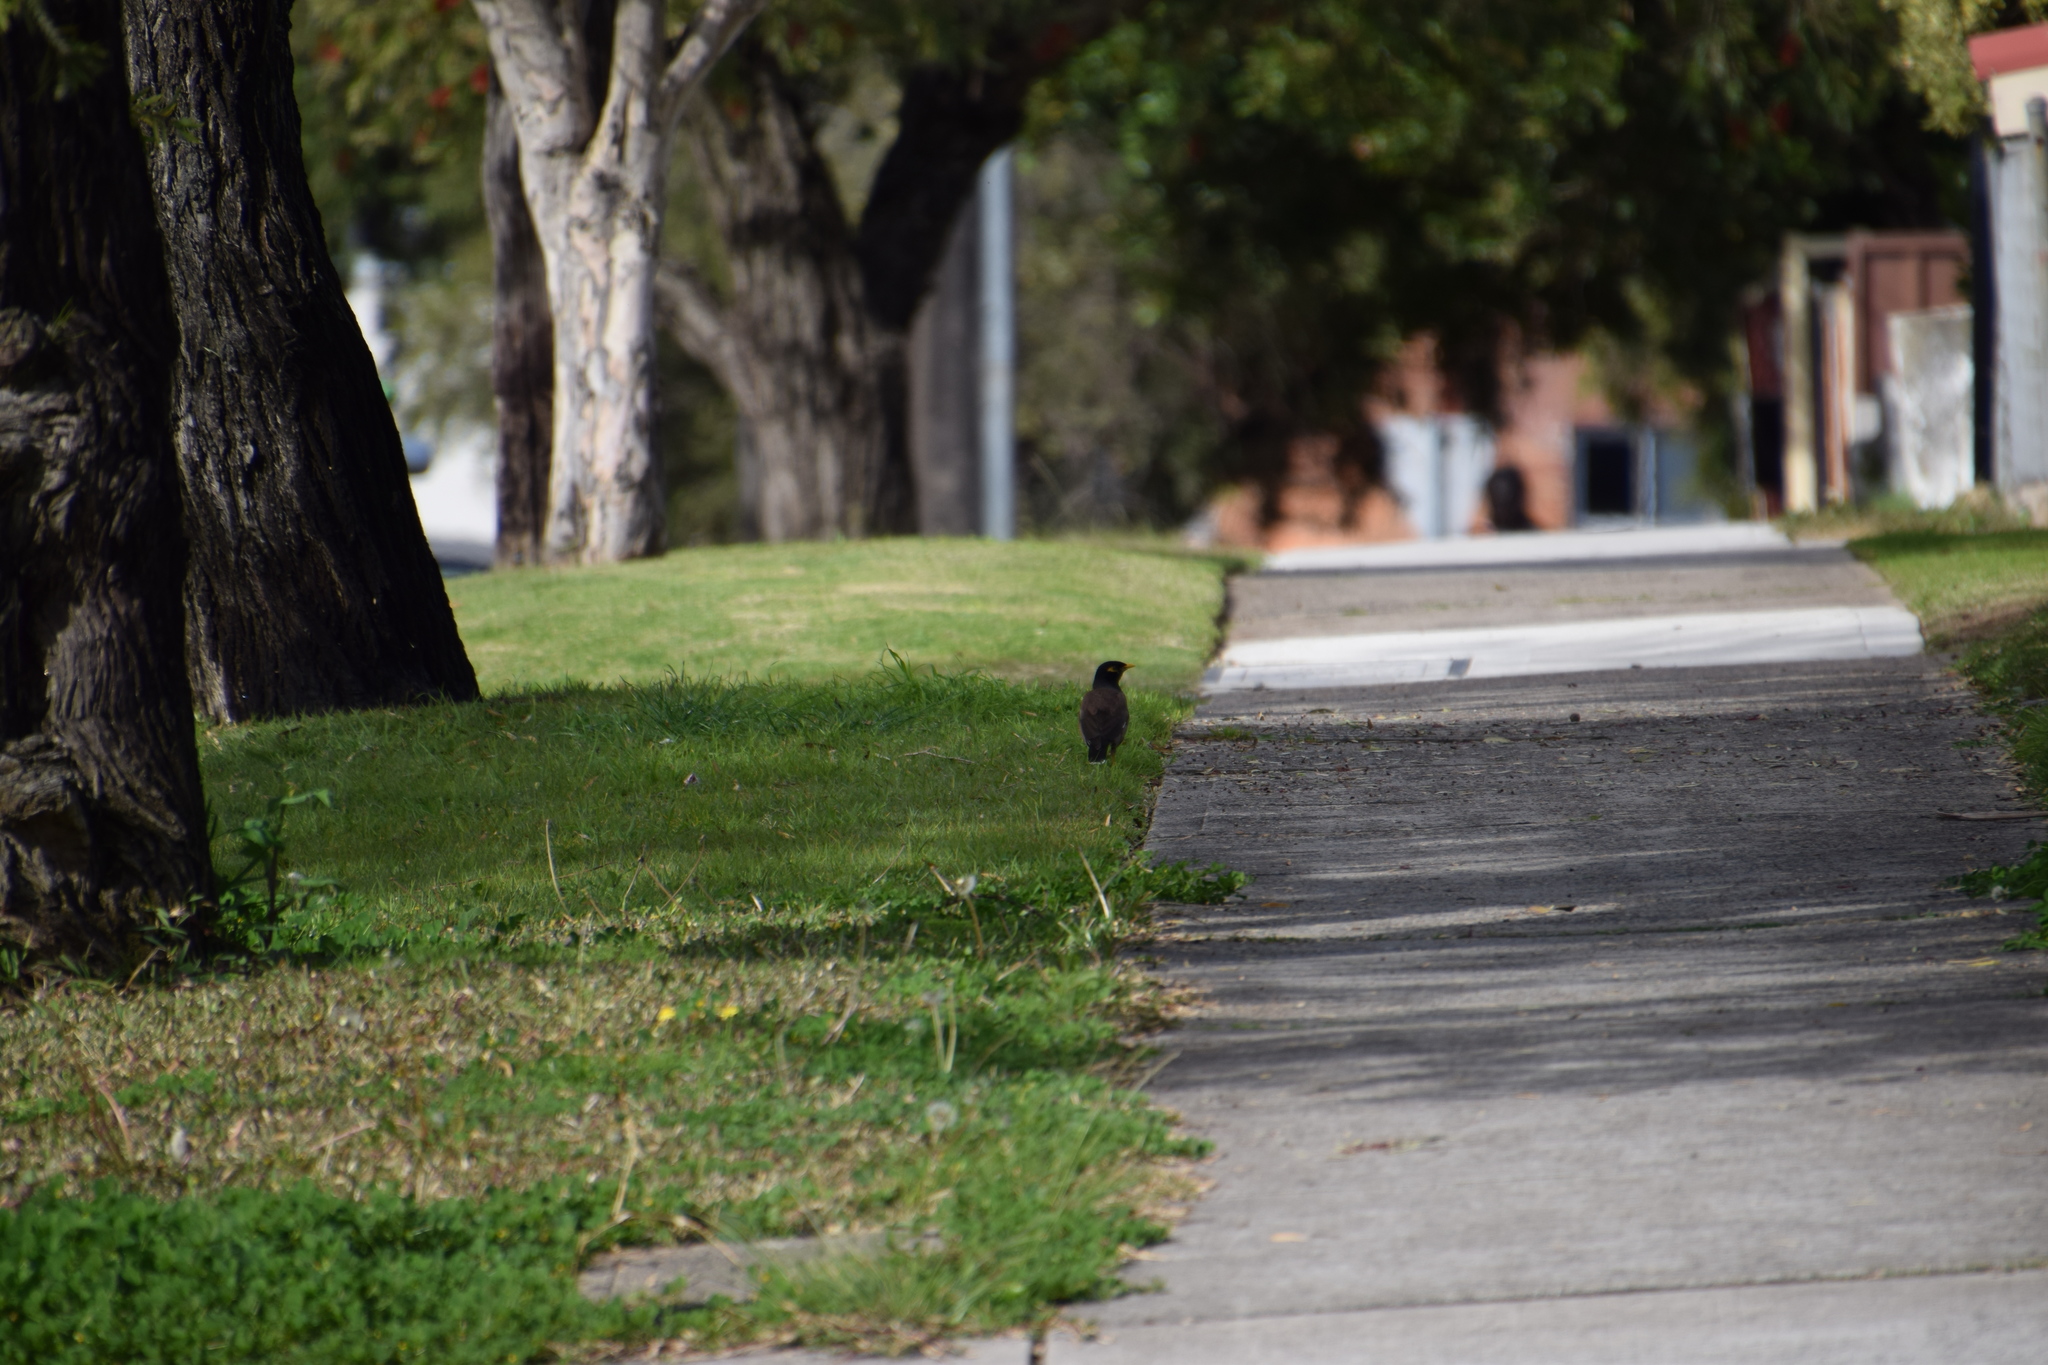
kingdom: Animalia
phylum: Chordata
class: Aves
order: Passeriformes
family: Sturnidae
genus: Acridotheres
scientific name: Acridotheres tristis
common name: Common myna
